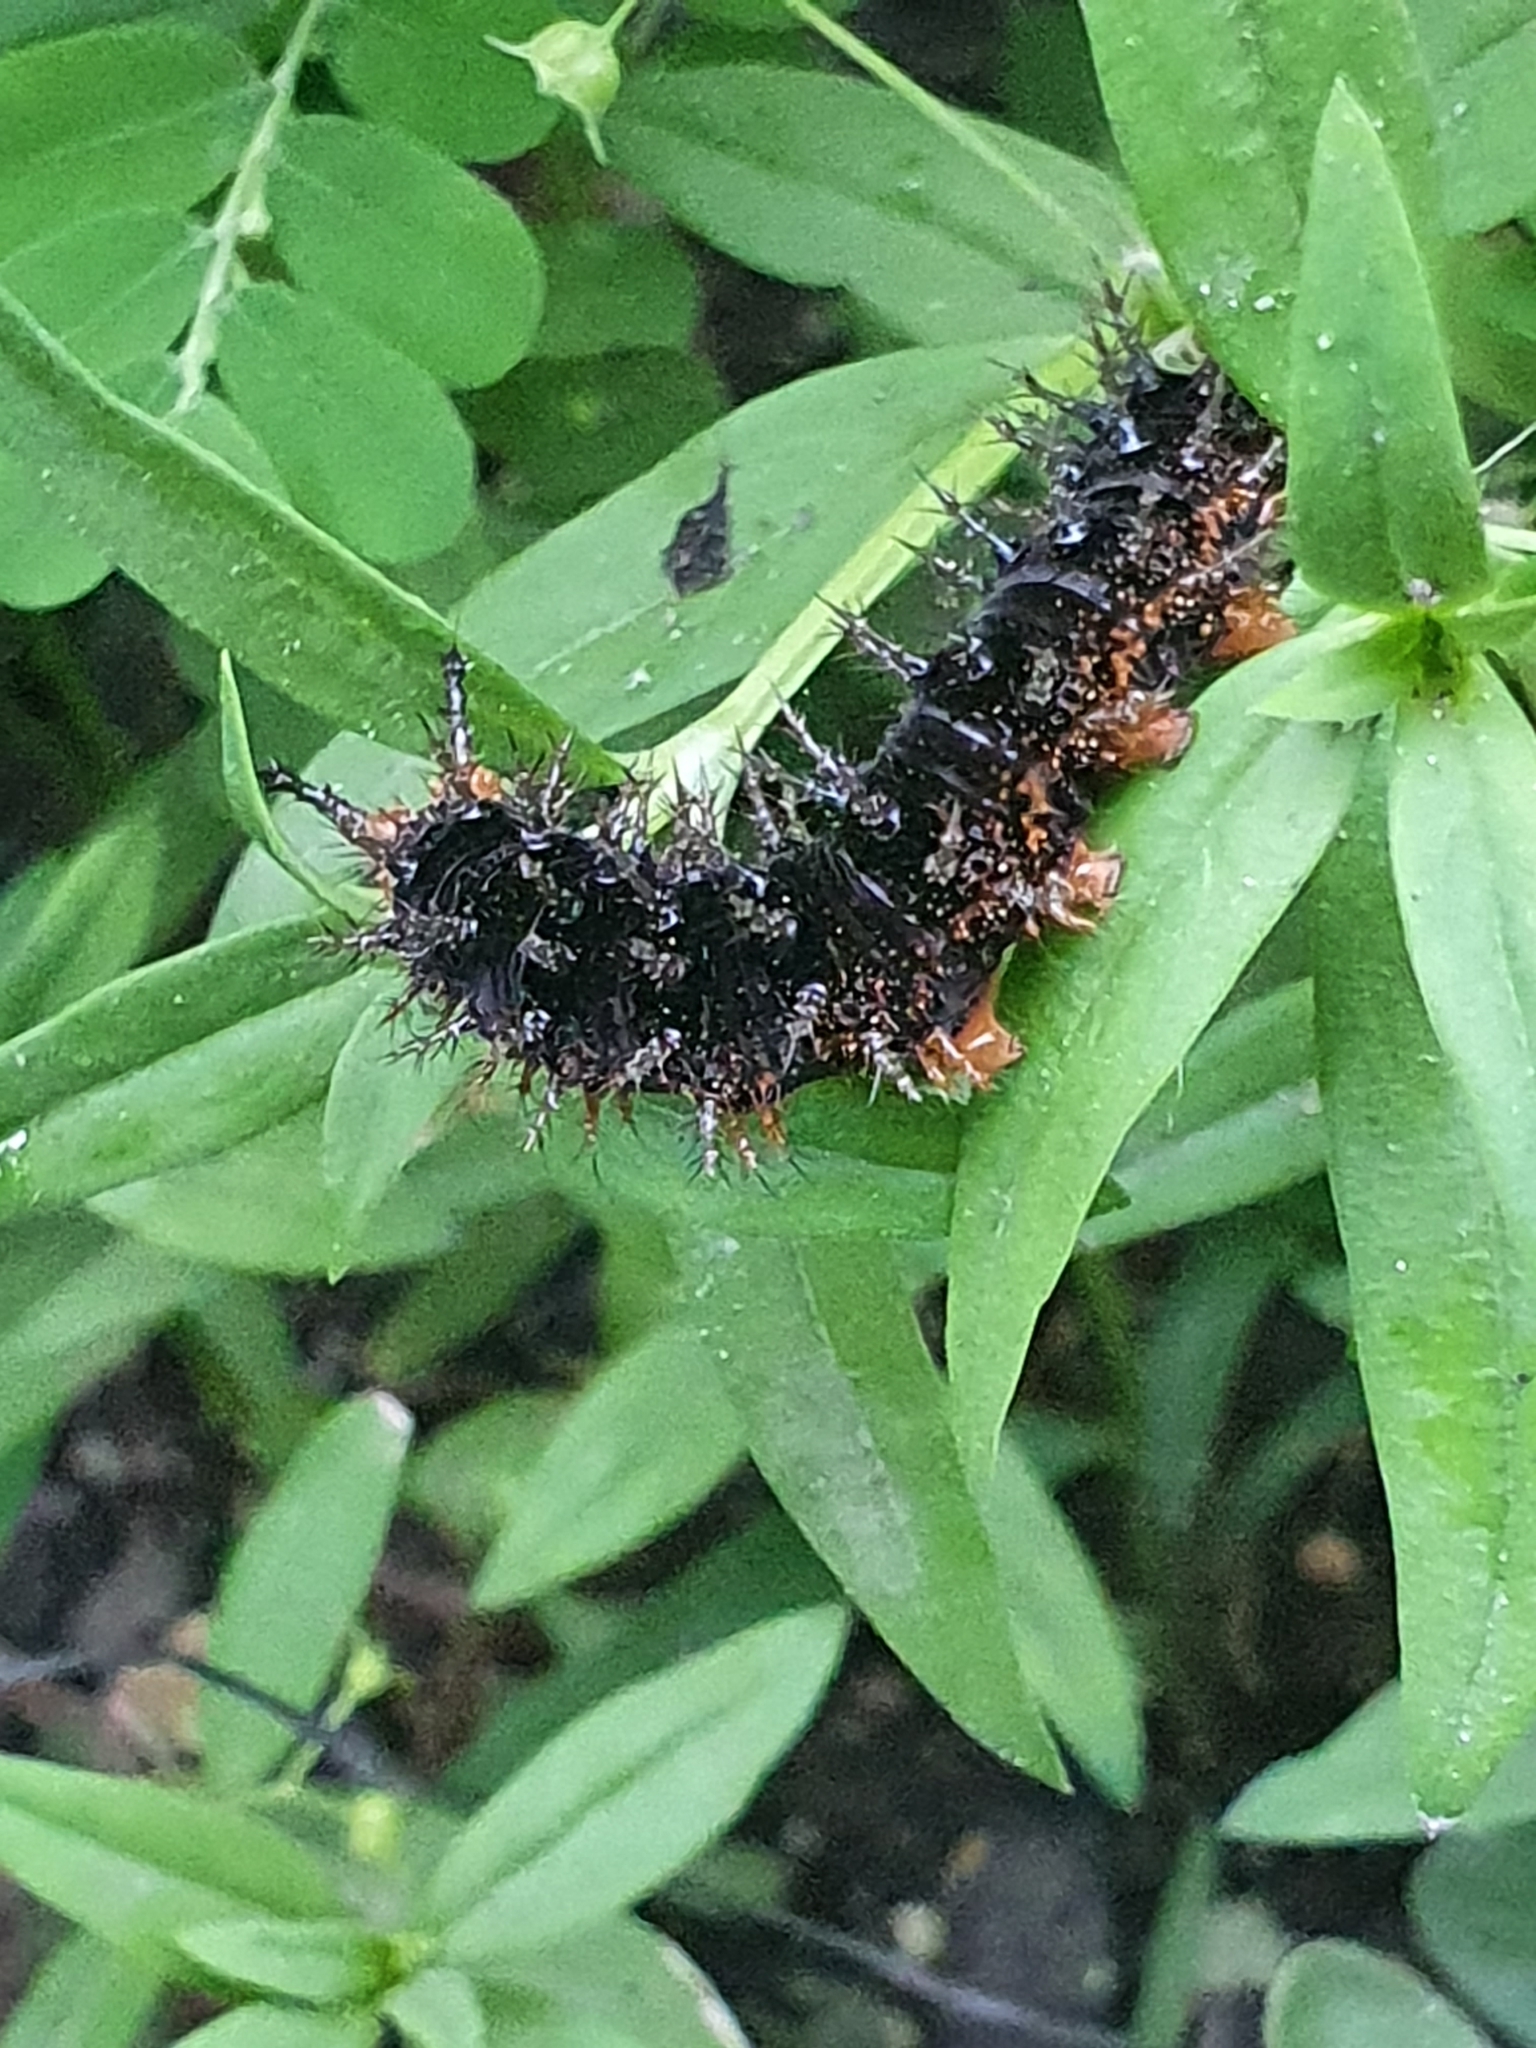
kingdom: Animalia
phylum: Arthropoda
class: Insecta
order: Lepidoptera
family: Nymphalidae
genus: Hypolimnas
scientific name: Hypolimnas bolina
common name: Great eggfly
